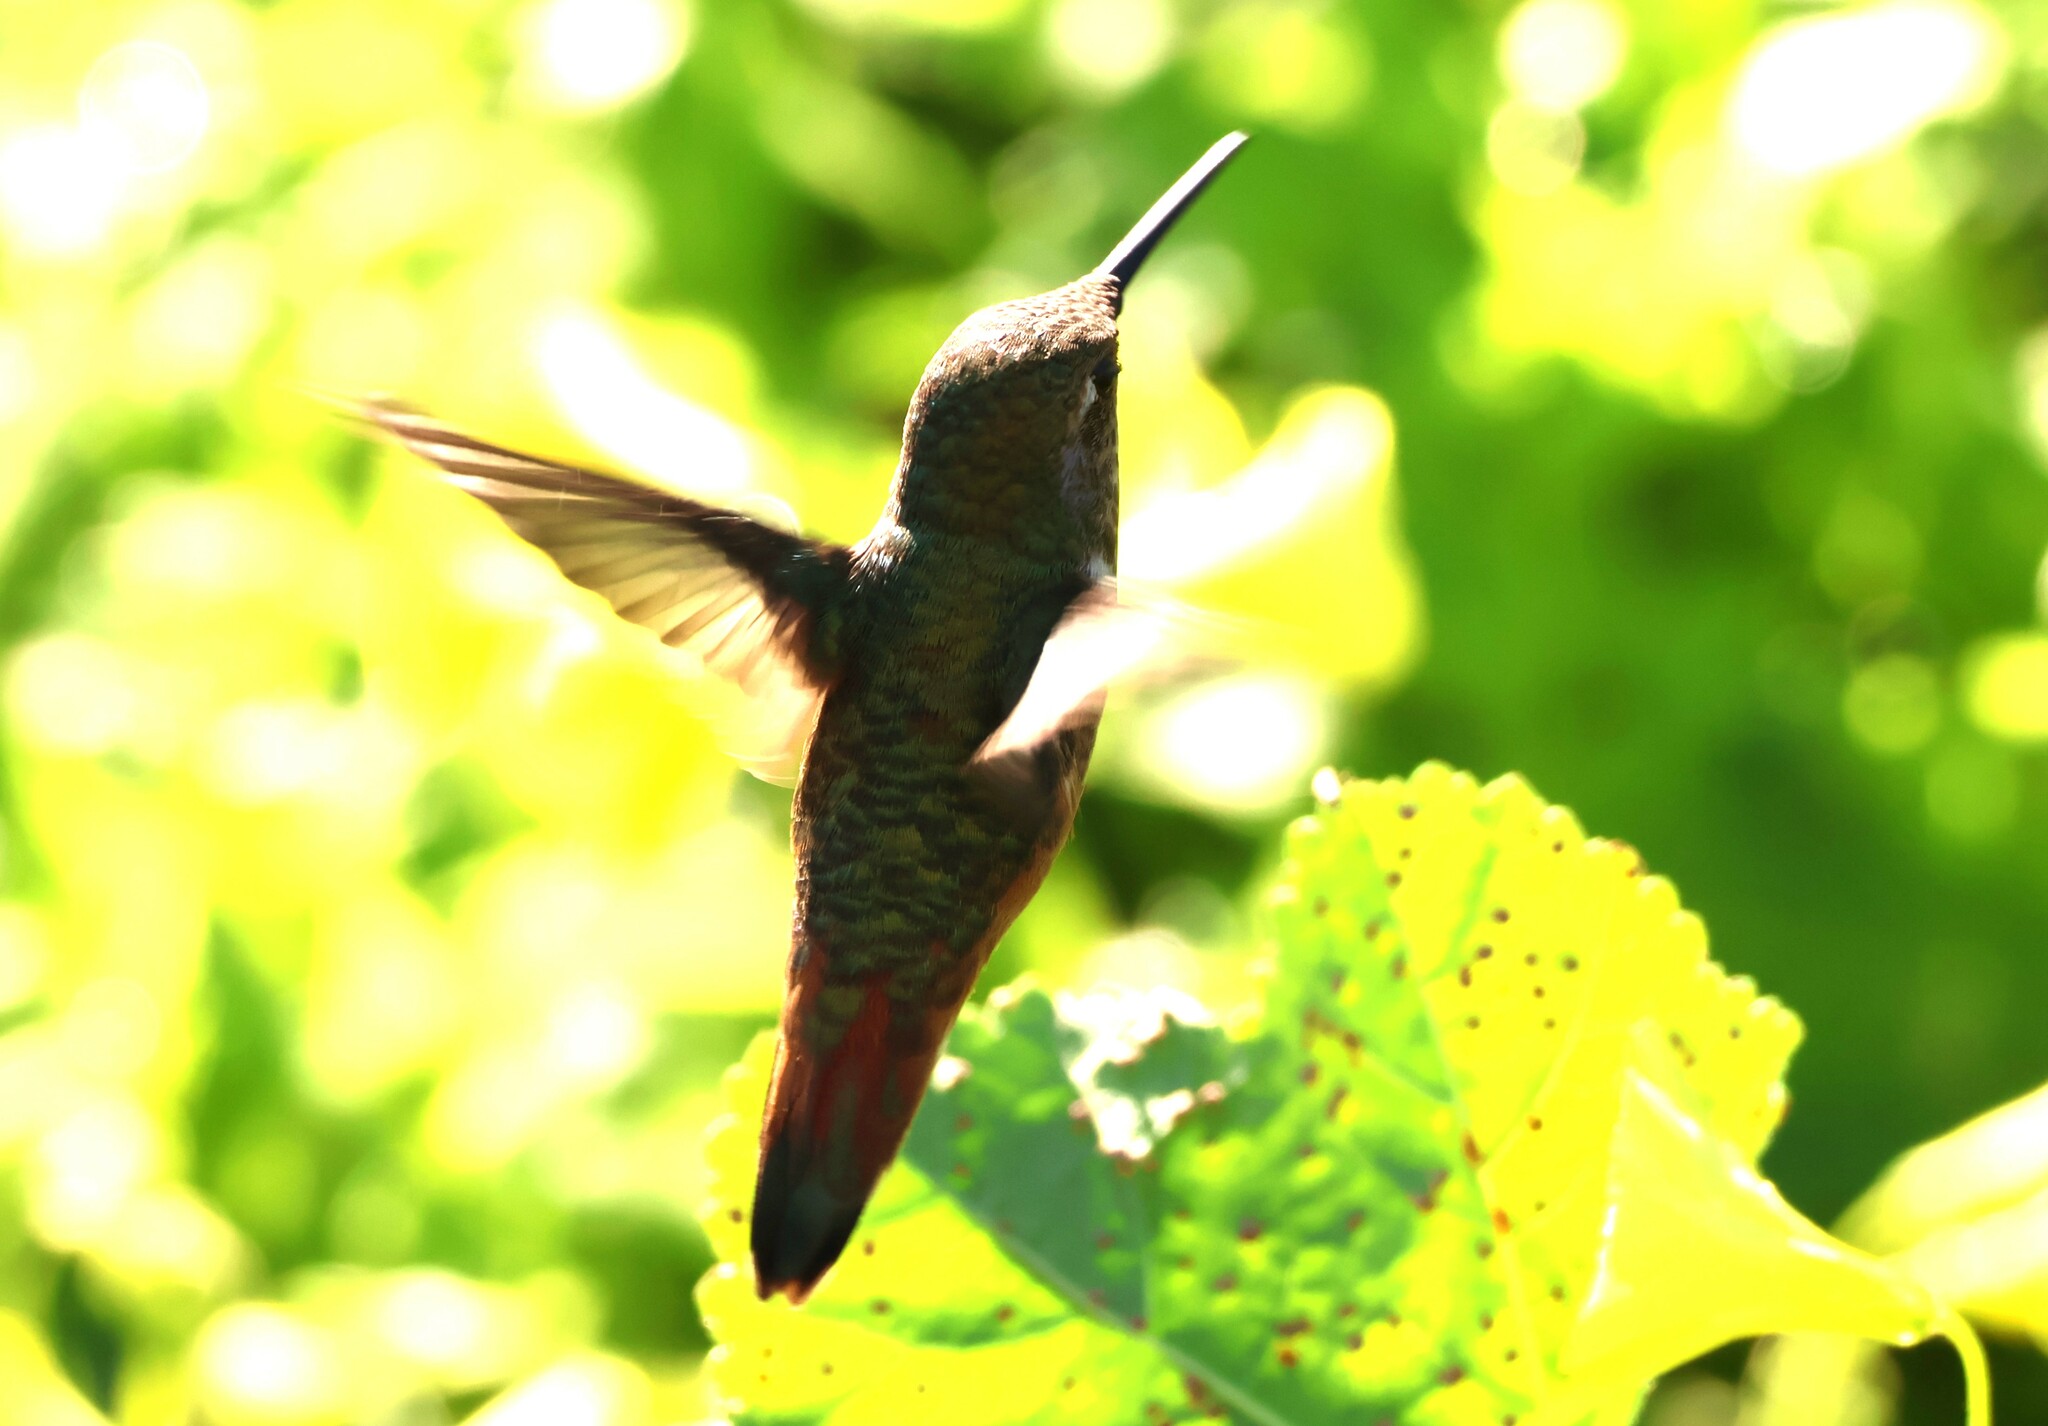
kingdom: Animalia
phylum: Chordata
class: Aves
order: Apodiformes
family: Trochilidae
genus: Selasphorus
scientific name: Selasphorus sasin
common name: Allen's hummingbird
